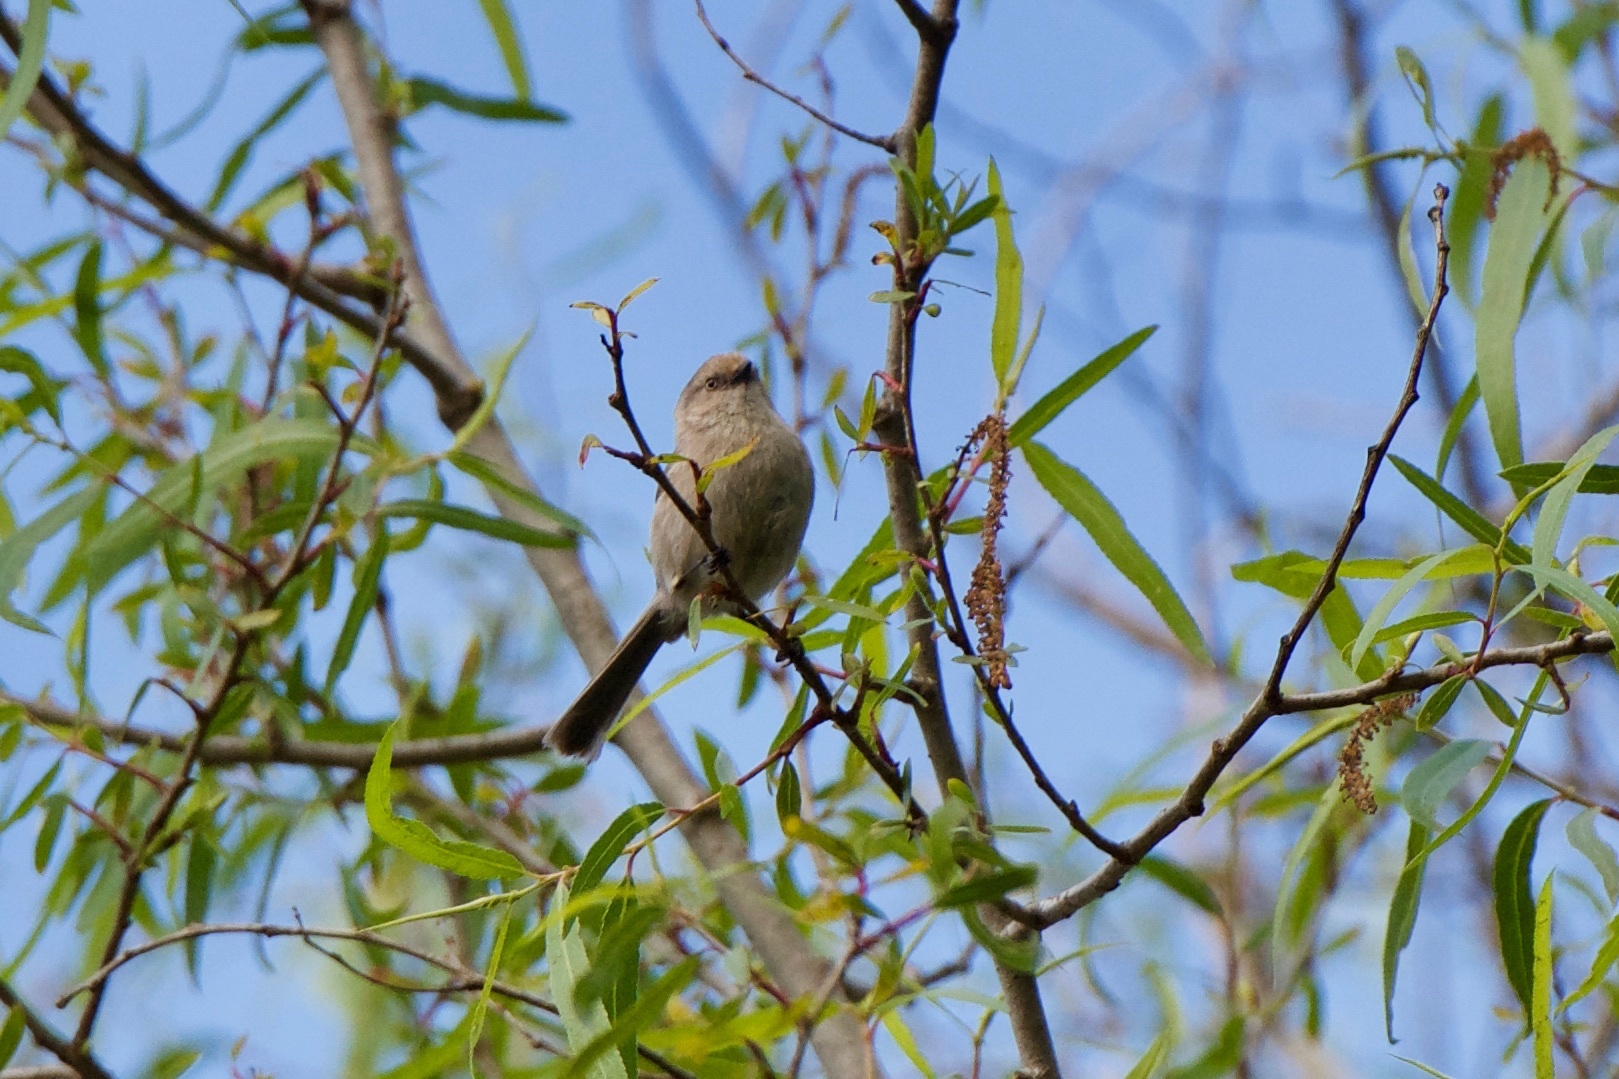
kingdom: Animalia
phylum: Chordata
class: Aves
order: Passeriformes
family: Aegithalidae
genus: Psaltriparus
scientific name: Psaltriparus minimus
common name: American bushtit
